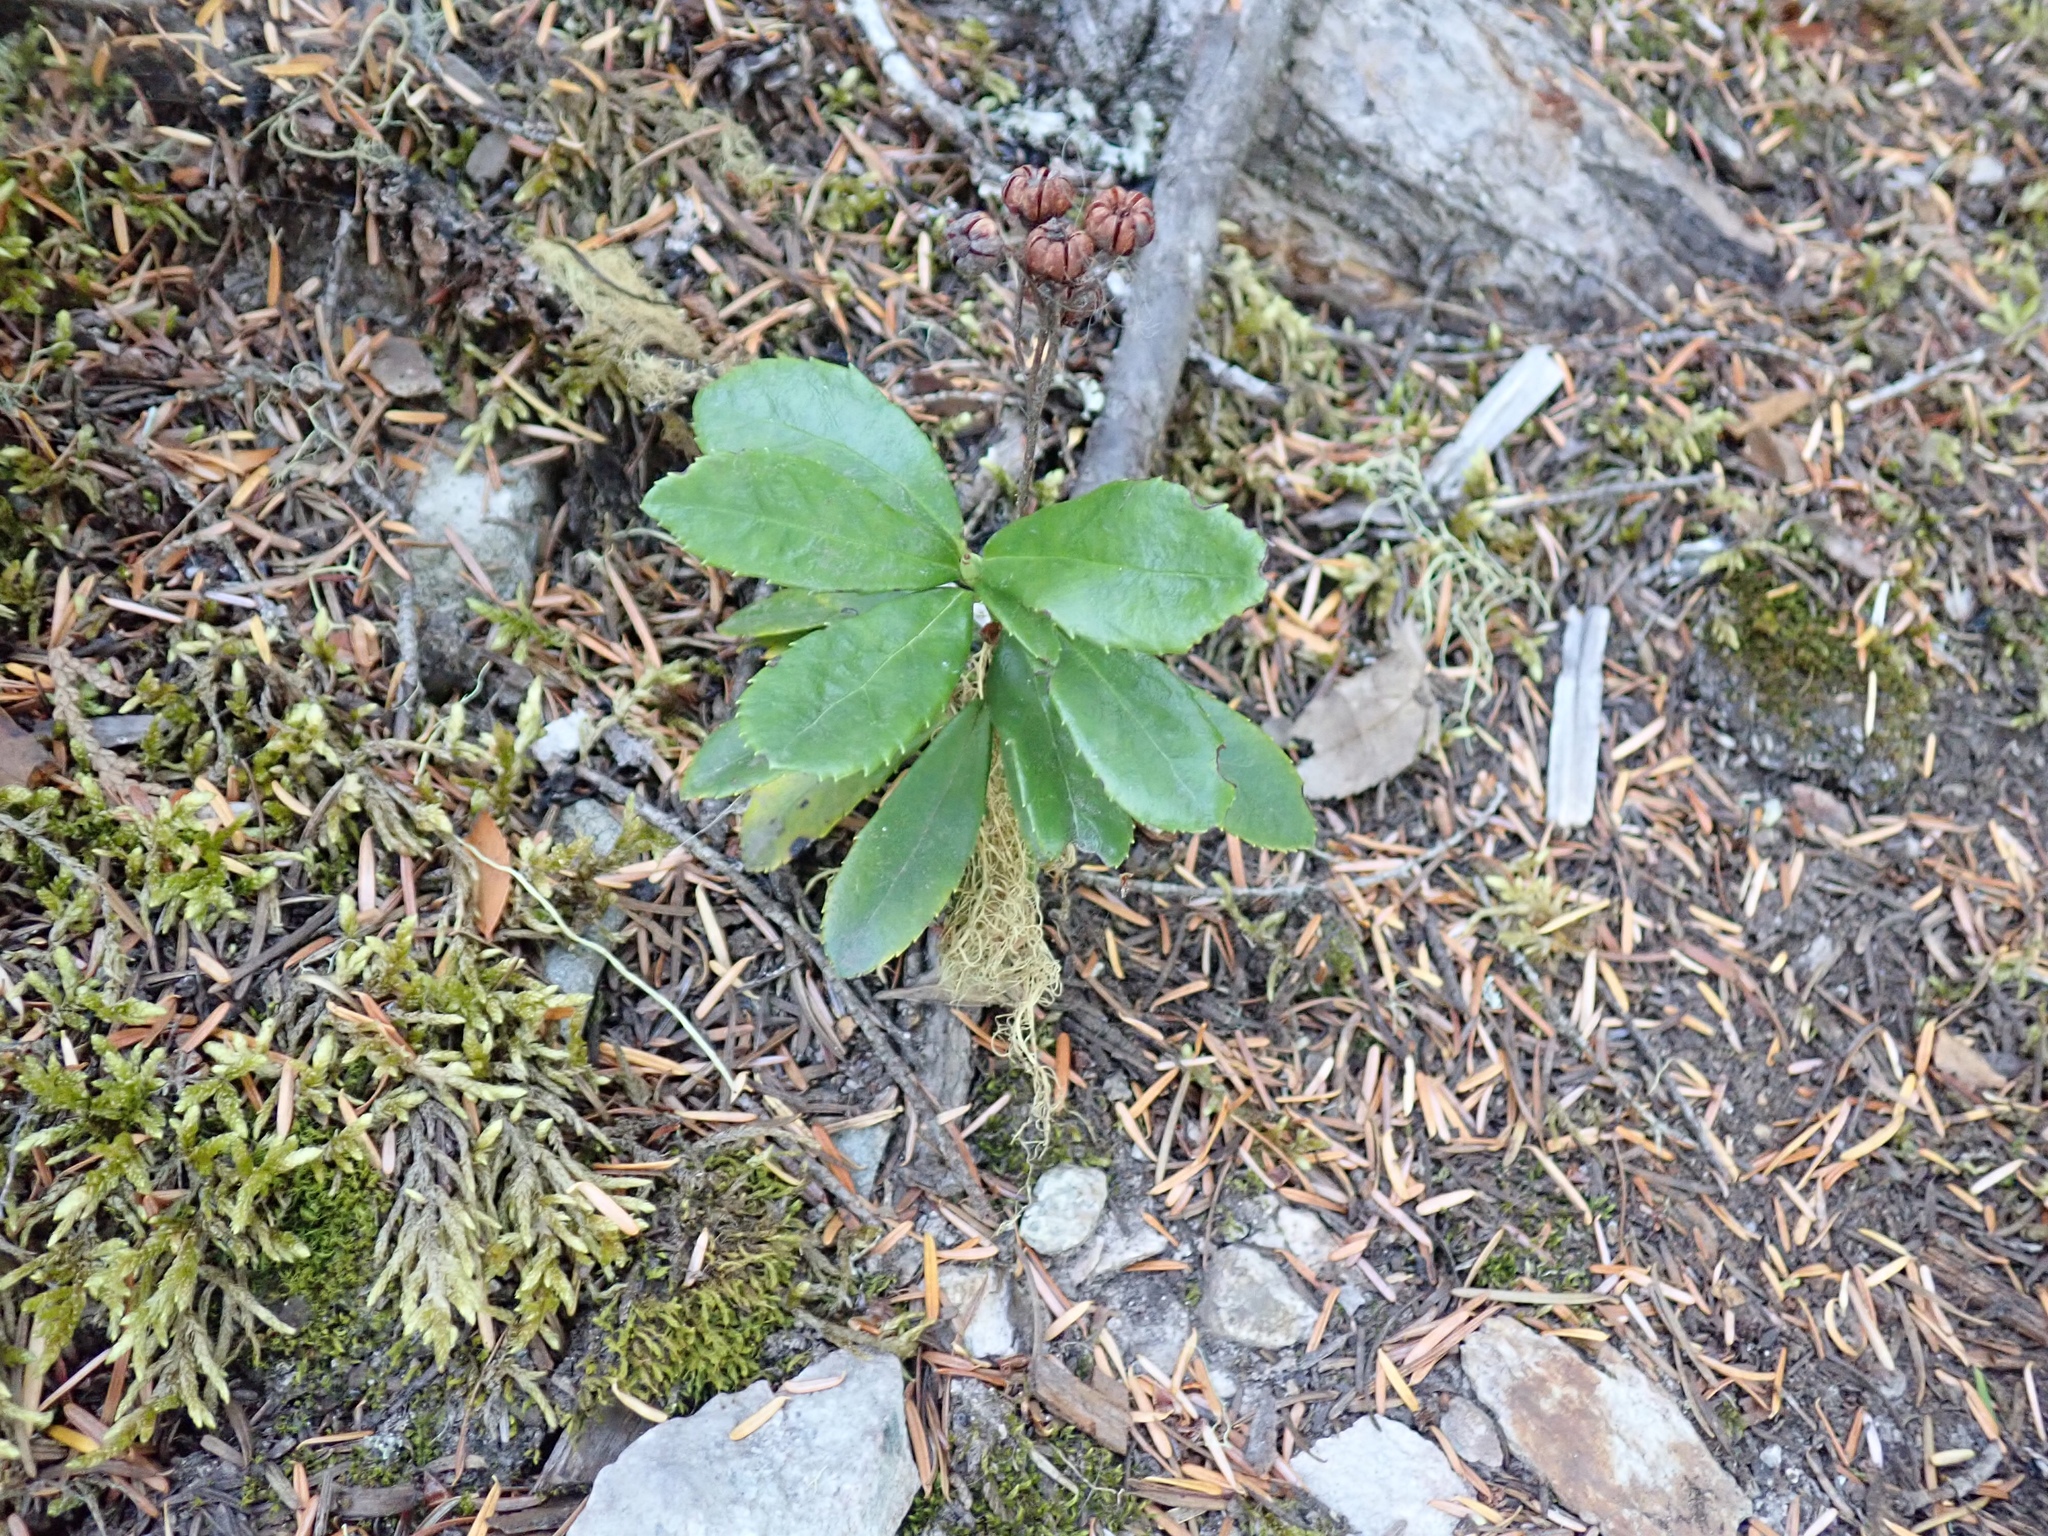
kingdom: Plantae
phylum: Tracheophyta
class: Magnoliopsida
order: Ericales
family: Ericaceae
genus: Chimaphila
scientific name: Chimaphila umbellata
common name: Pipsissewa
